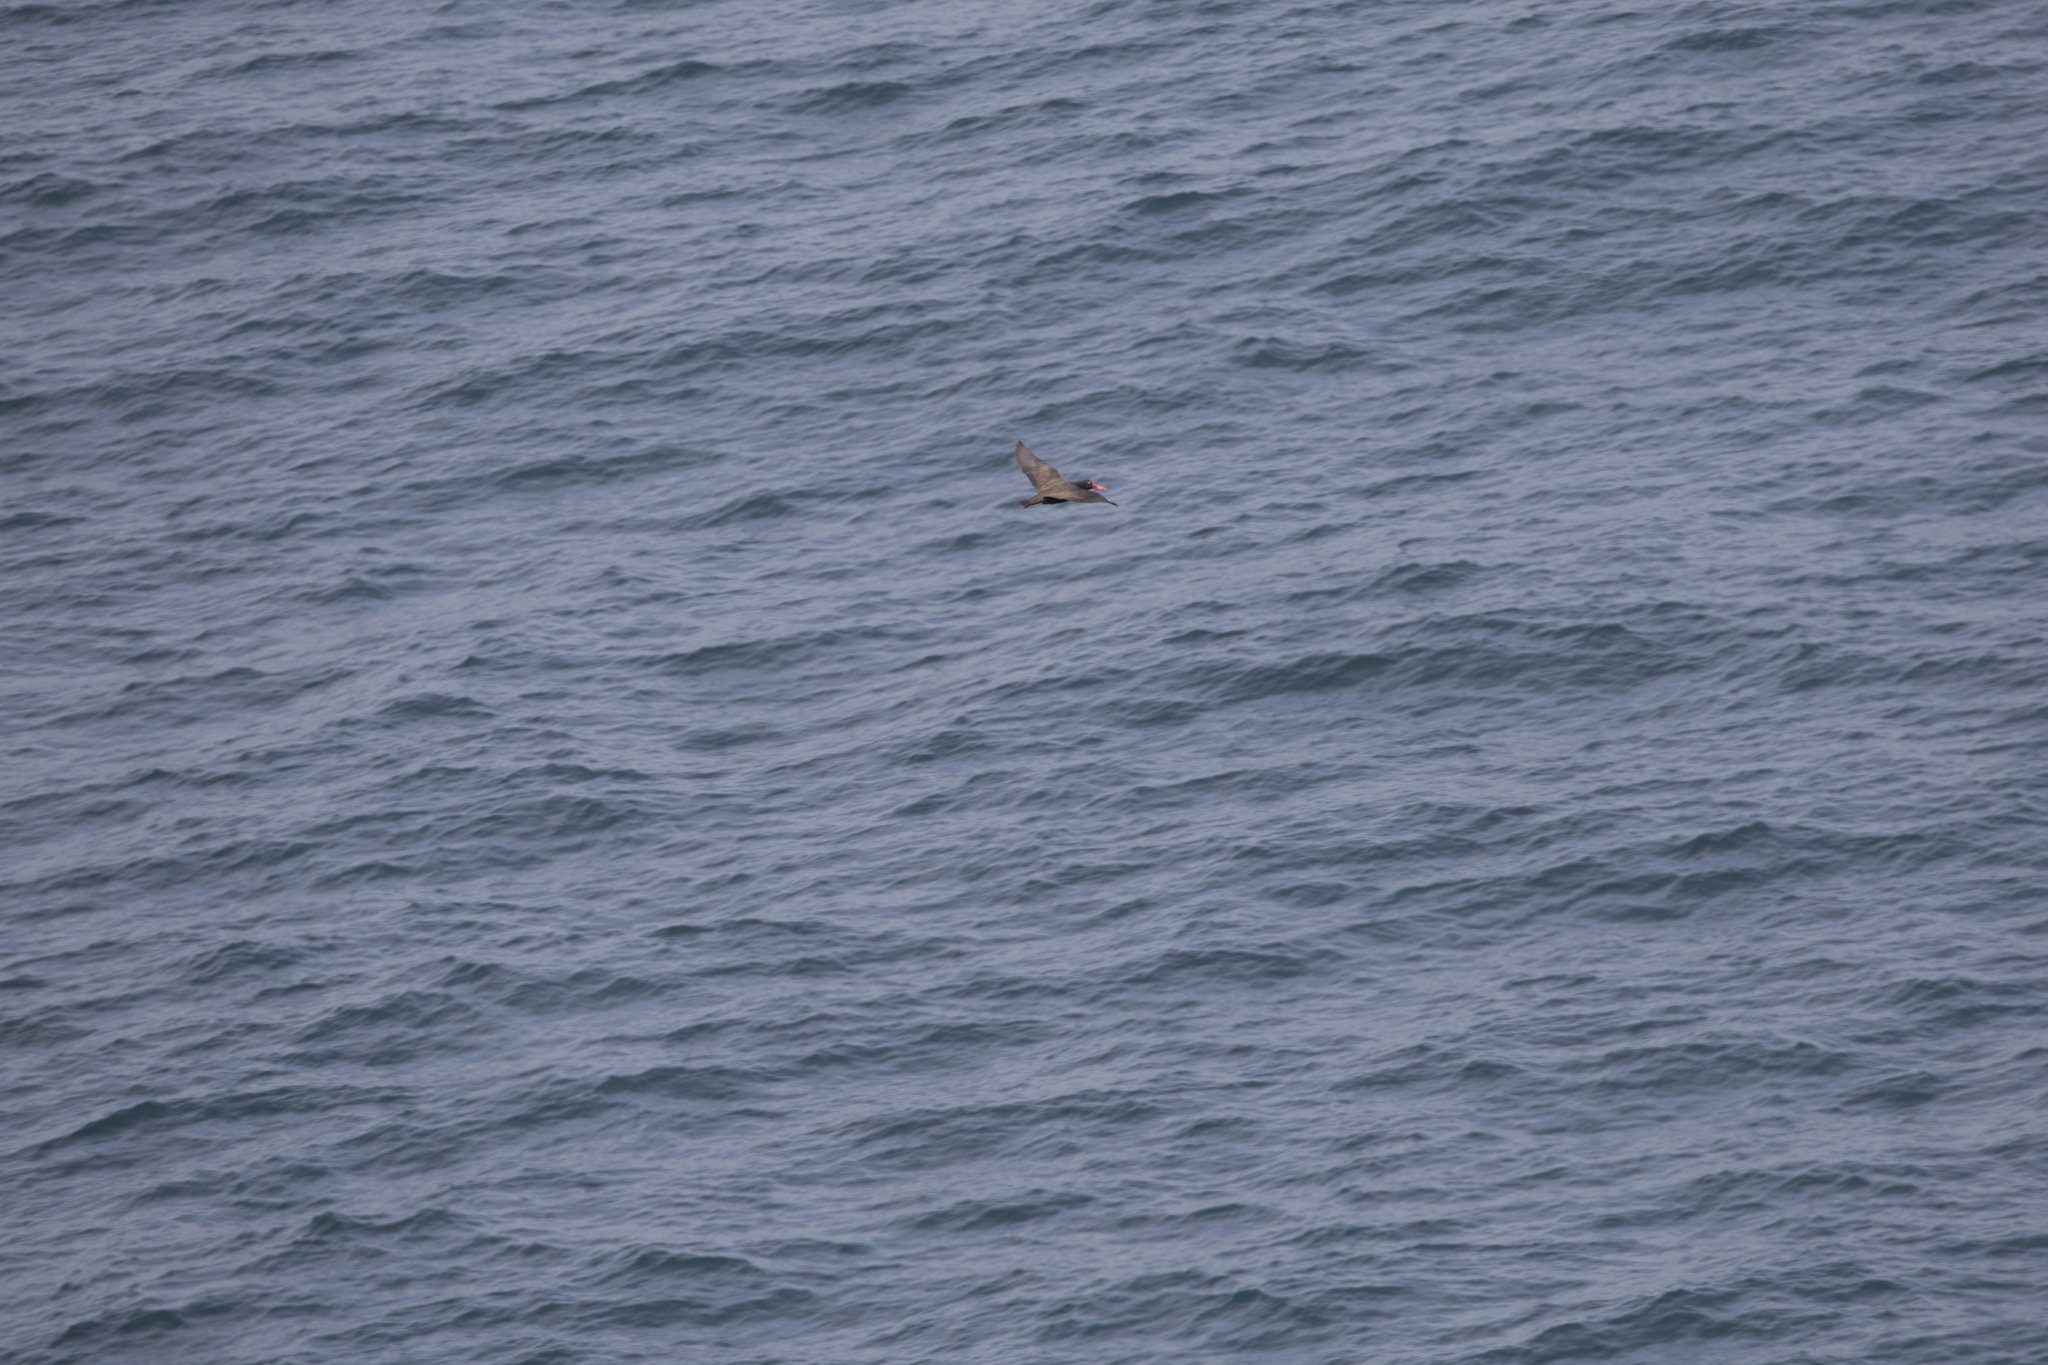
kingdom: Animalia
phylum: Chordata
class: Aves
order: Charadriiformes
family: Haematopodidae
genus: Haematopus
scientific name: Haematopus ater
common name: Blackish oystercatcher
